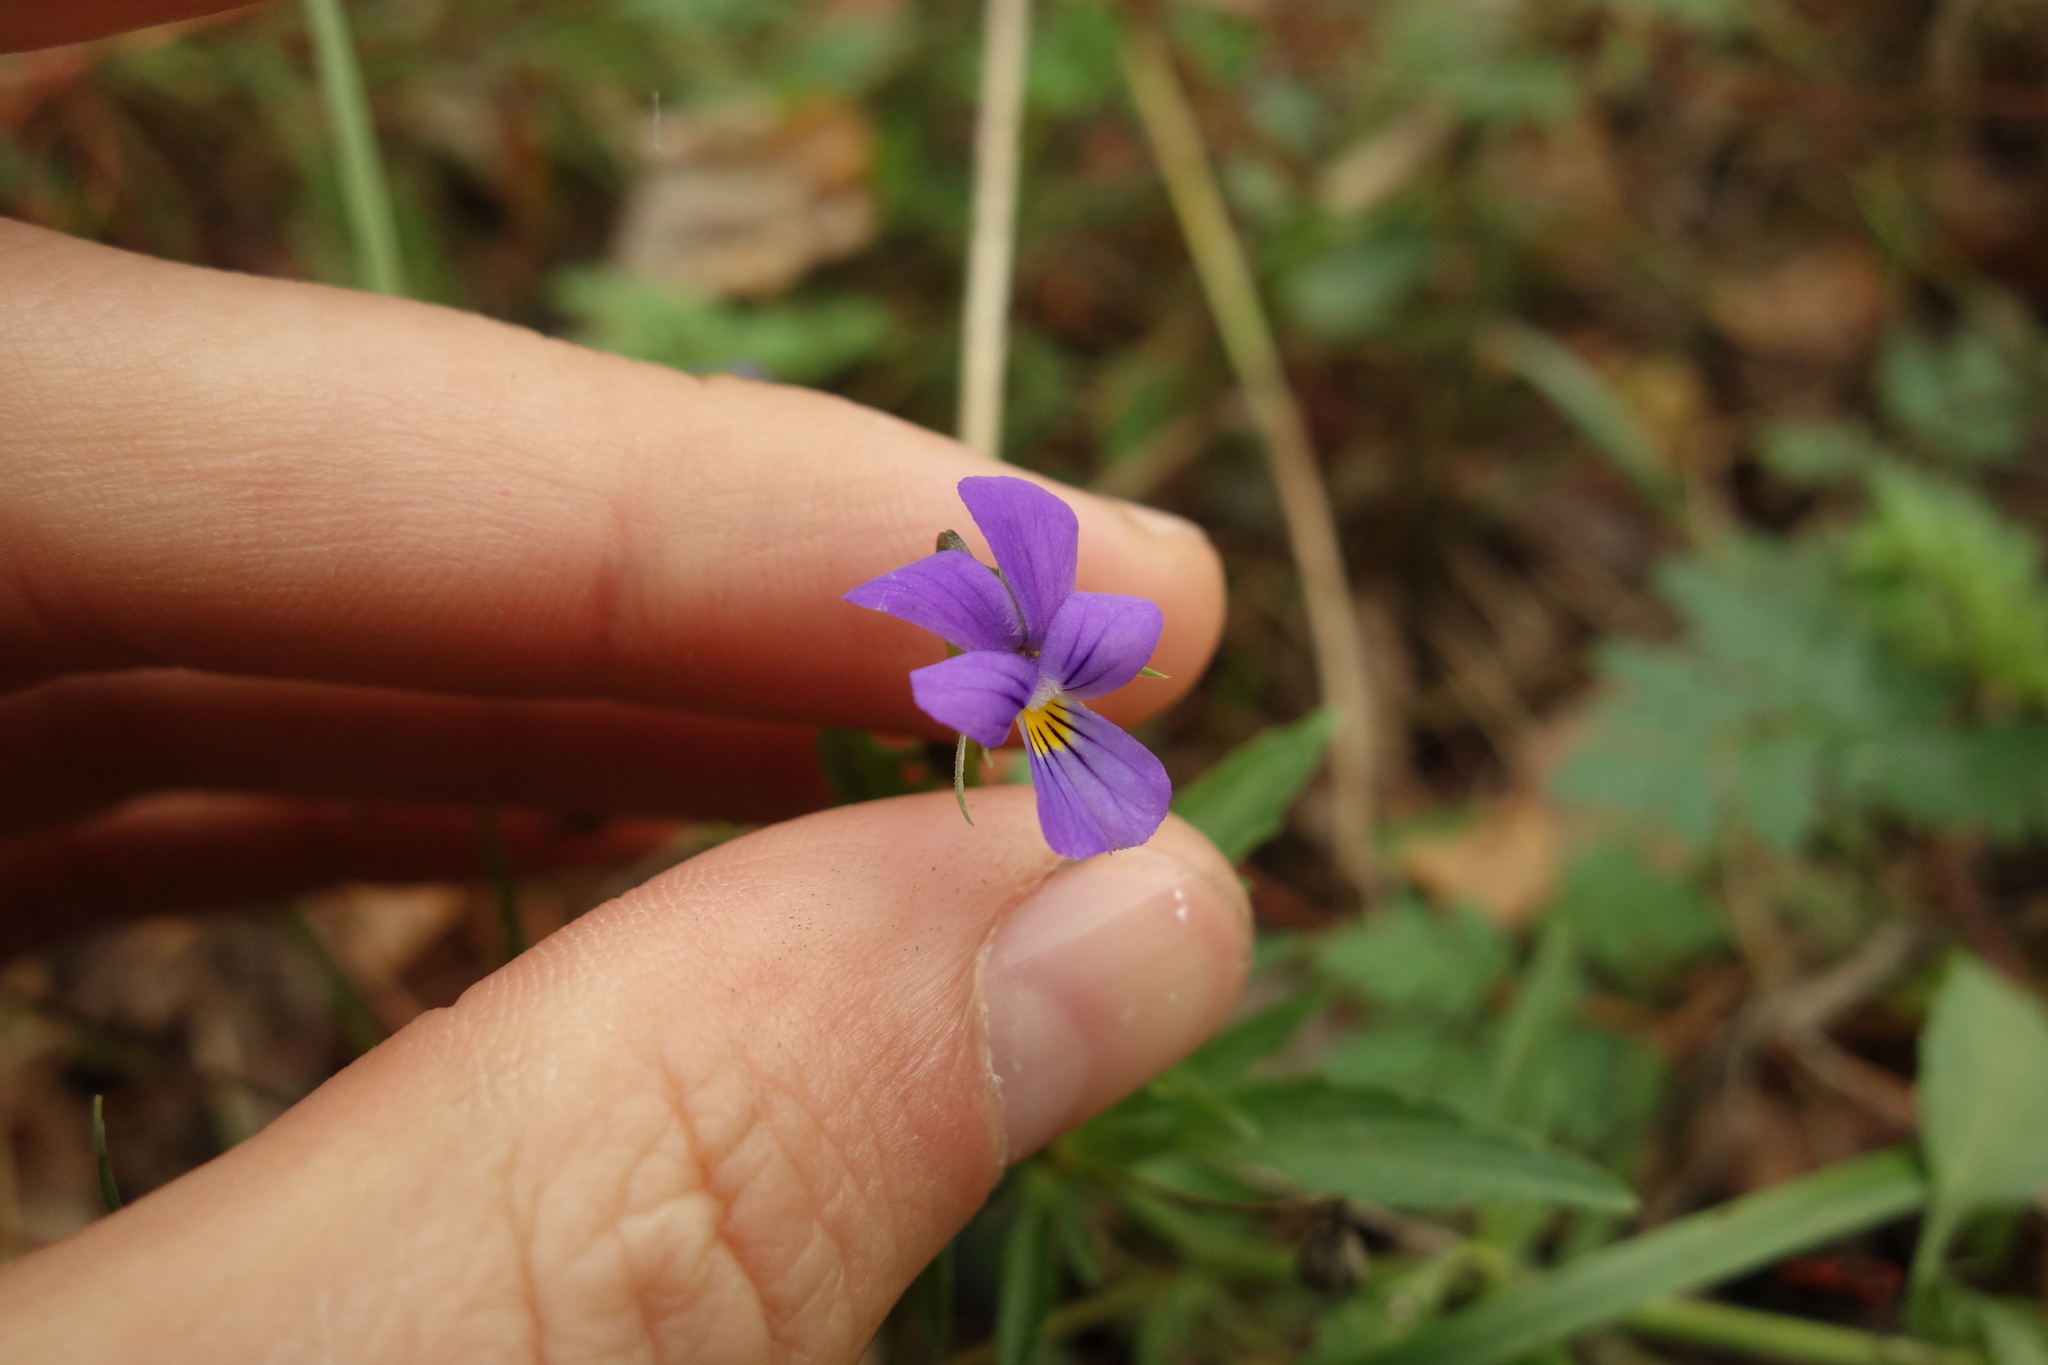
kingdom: Plantae
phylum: Tracheophyta
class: Magnoliopsida
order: Malpighiales
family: Violaceae
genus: Viola
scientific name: Viola tricolor
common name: Pansy
